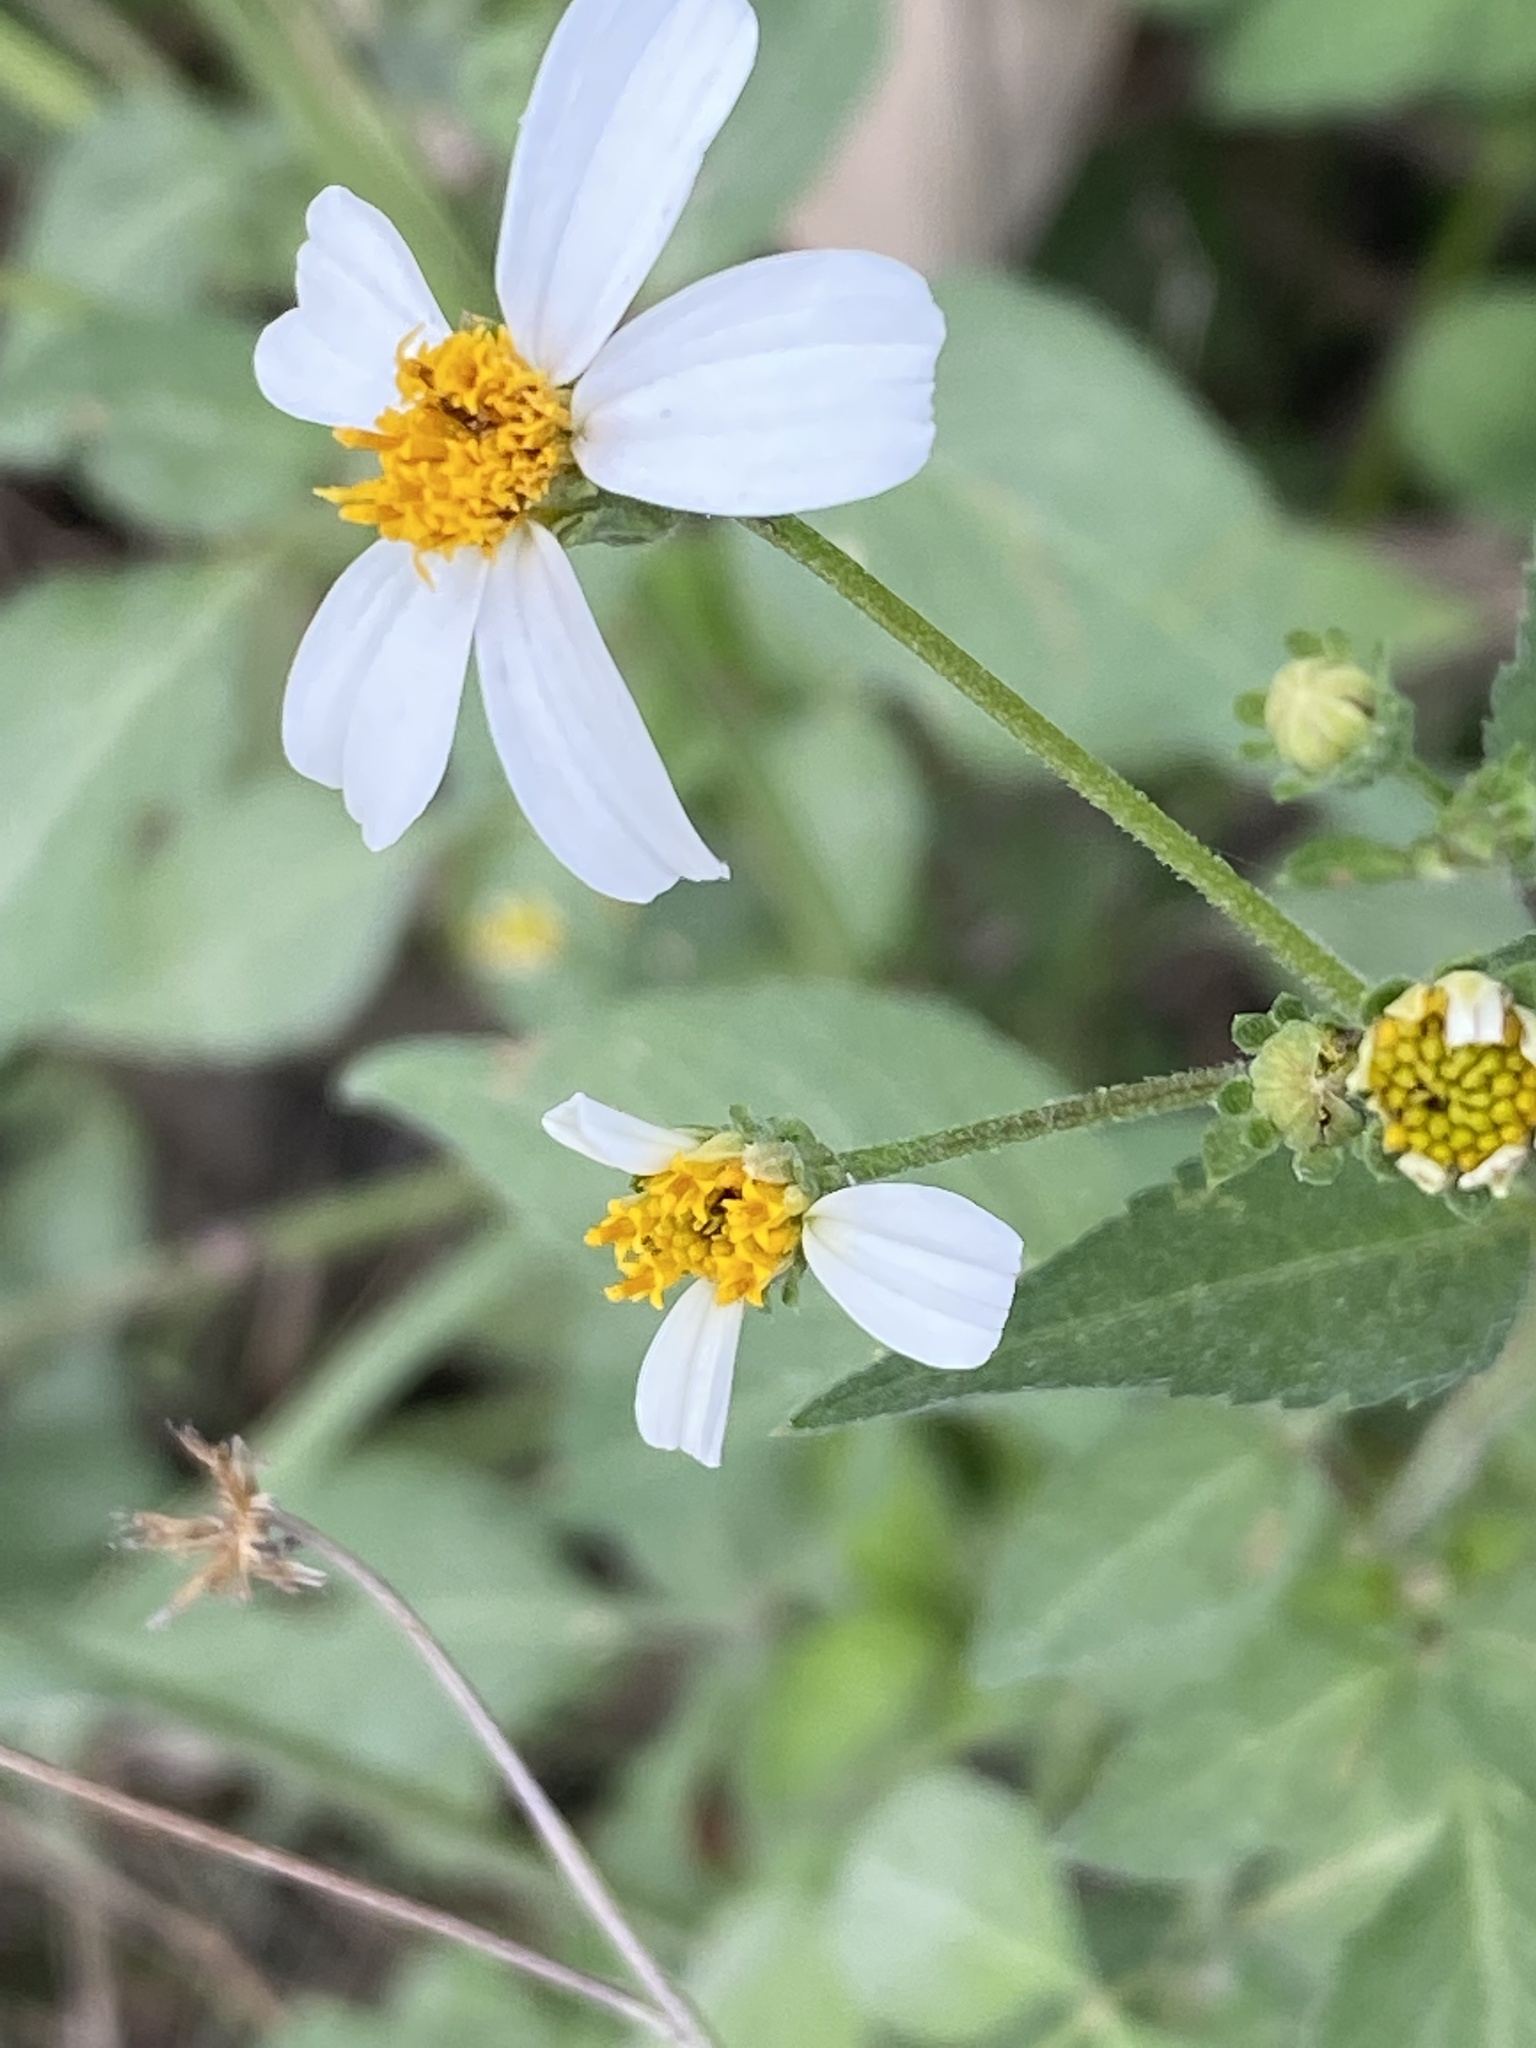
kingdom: Plantae
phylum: Tracheophyta
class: Magnoliopsida
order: Asterales
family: Asteraceae
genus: Bidens
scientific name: Bidens alba
